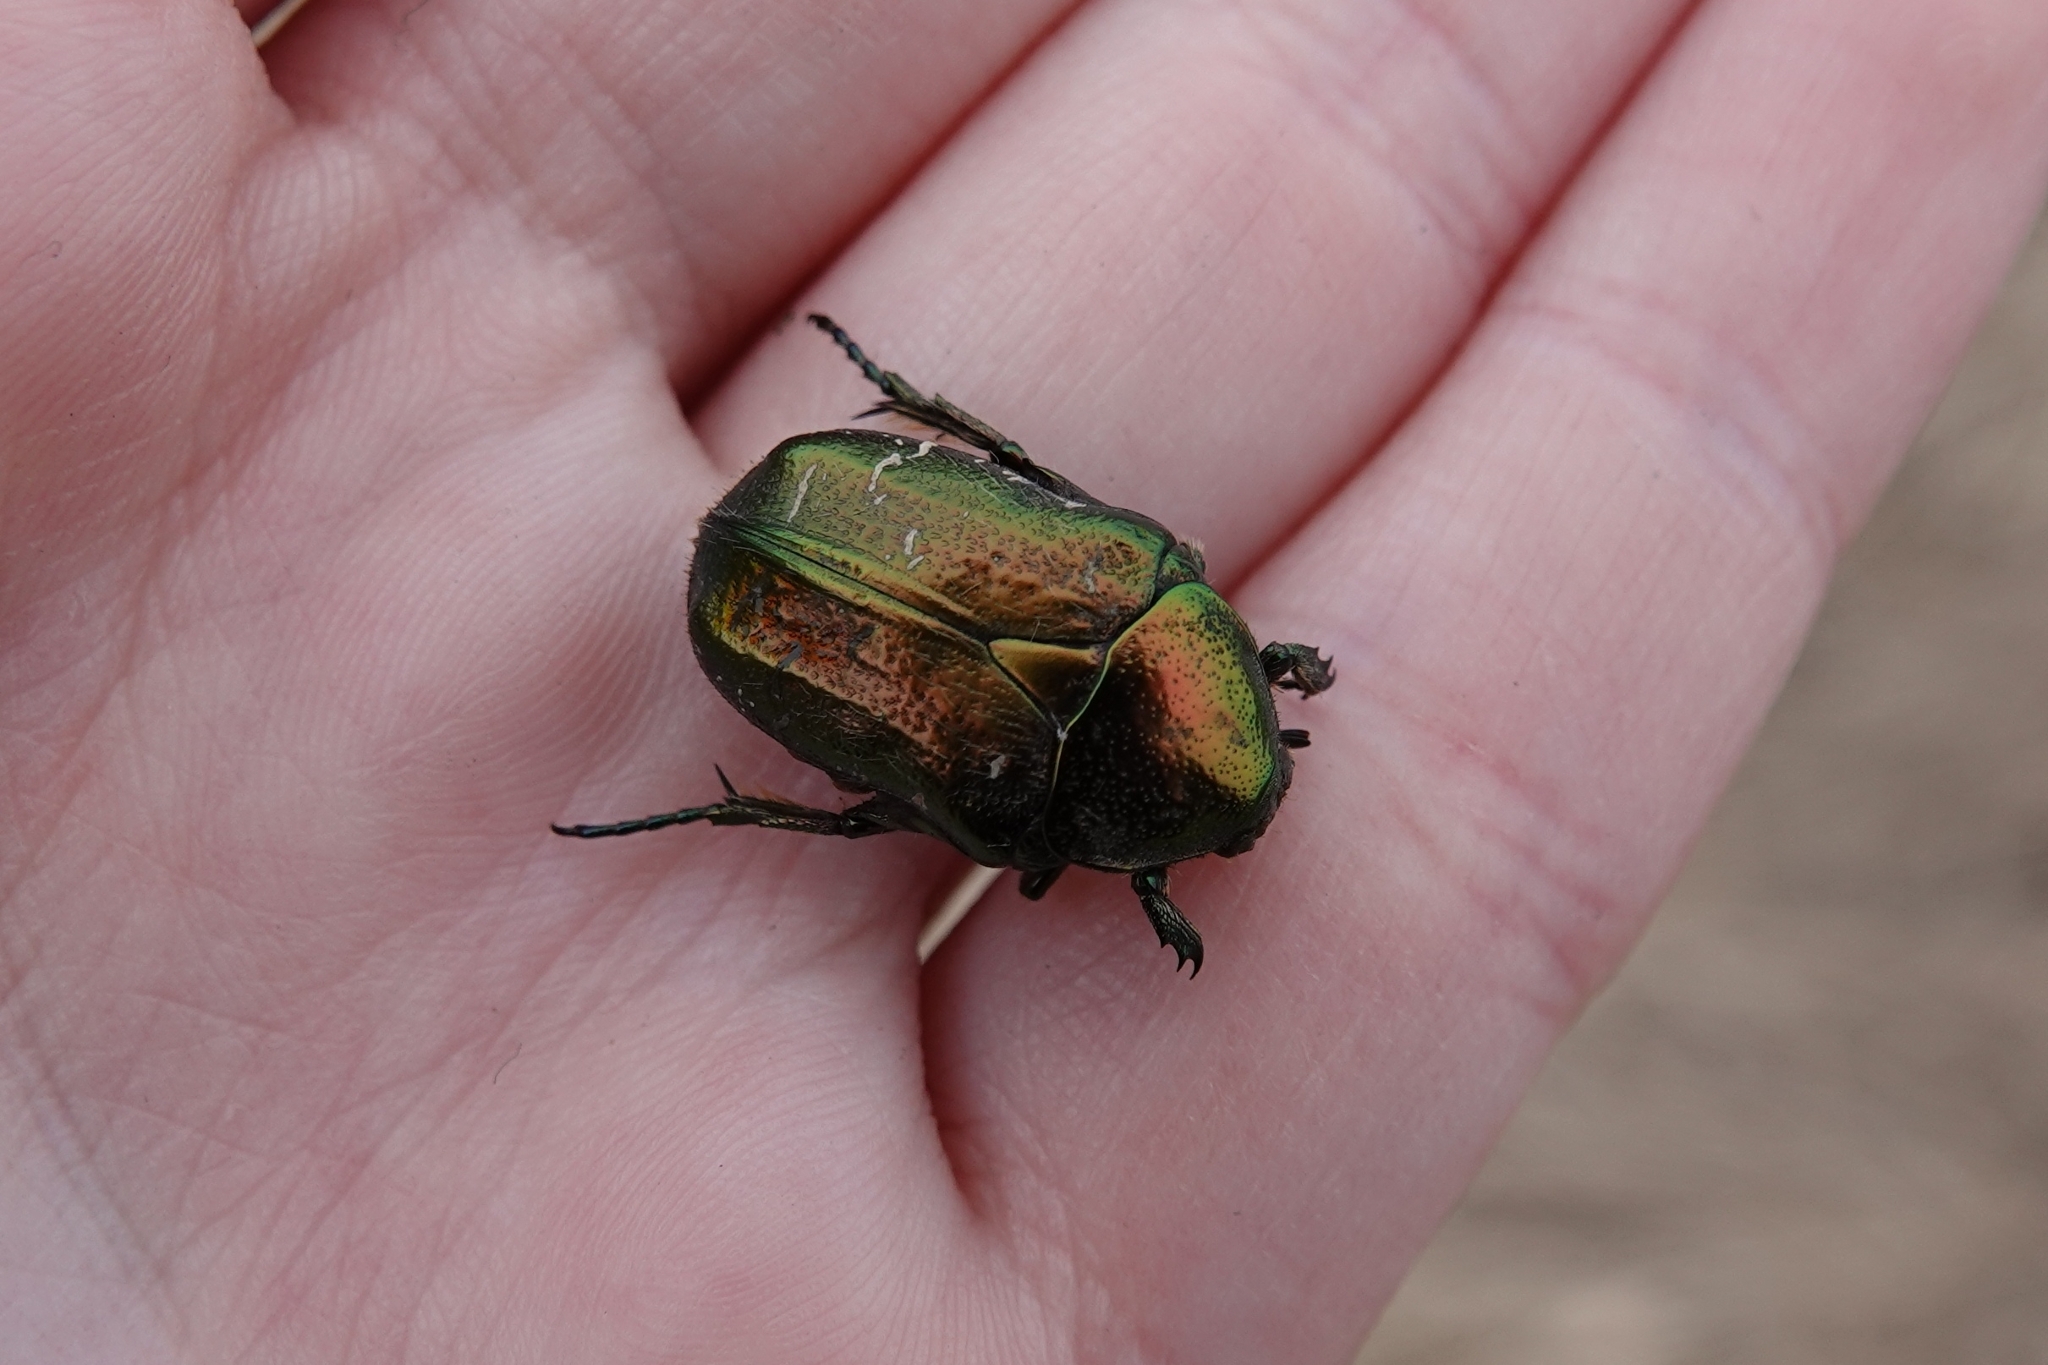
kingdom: Animalia
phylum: Arthropoda
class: Insecta
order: Coleoptera
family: Scarabaeidae
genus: Cetonia
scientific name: Cetonia aurata
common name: Rose chafer
